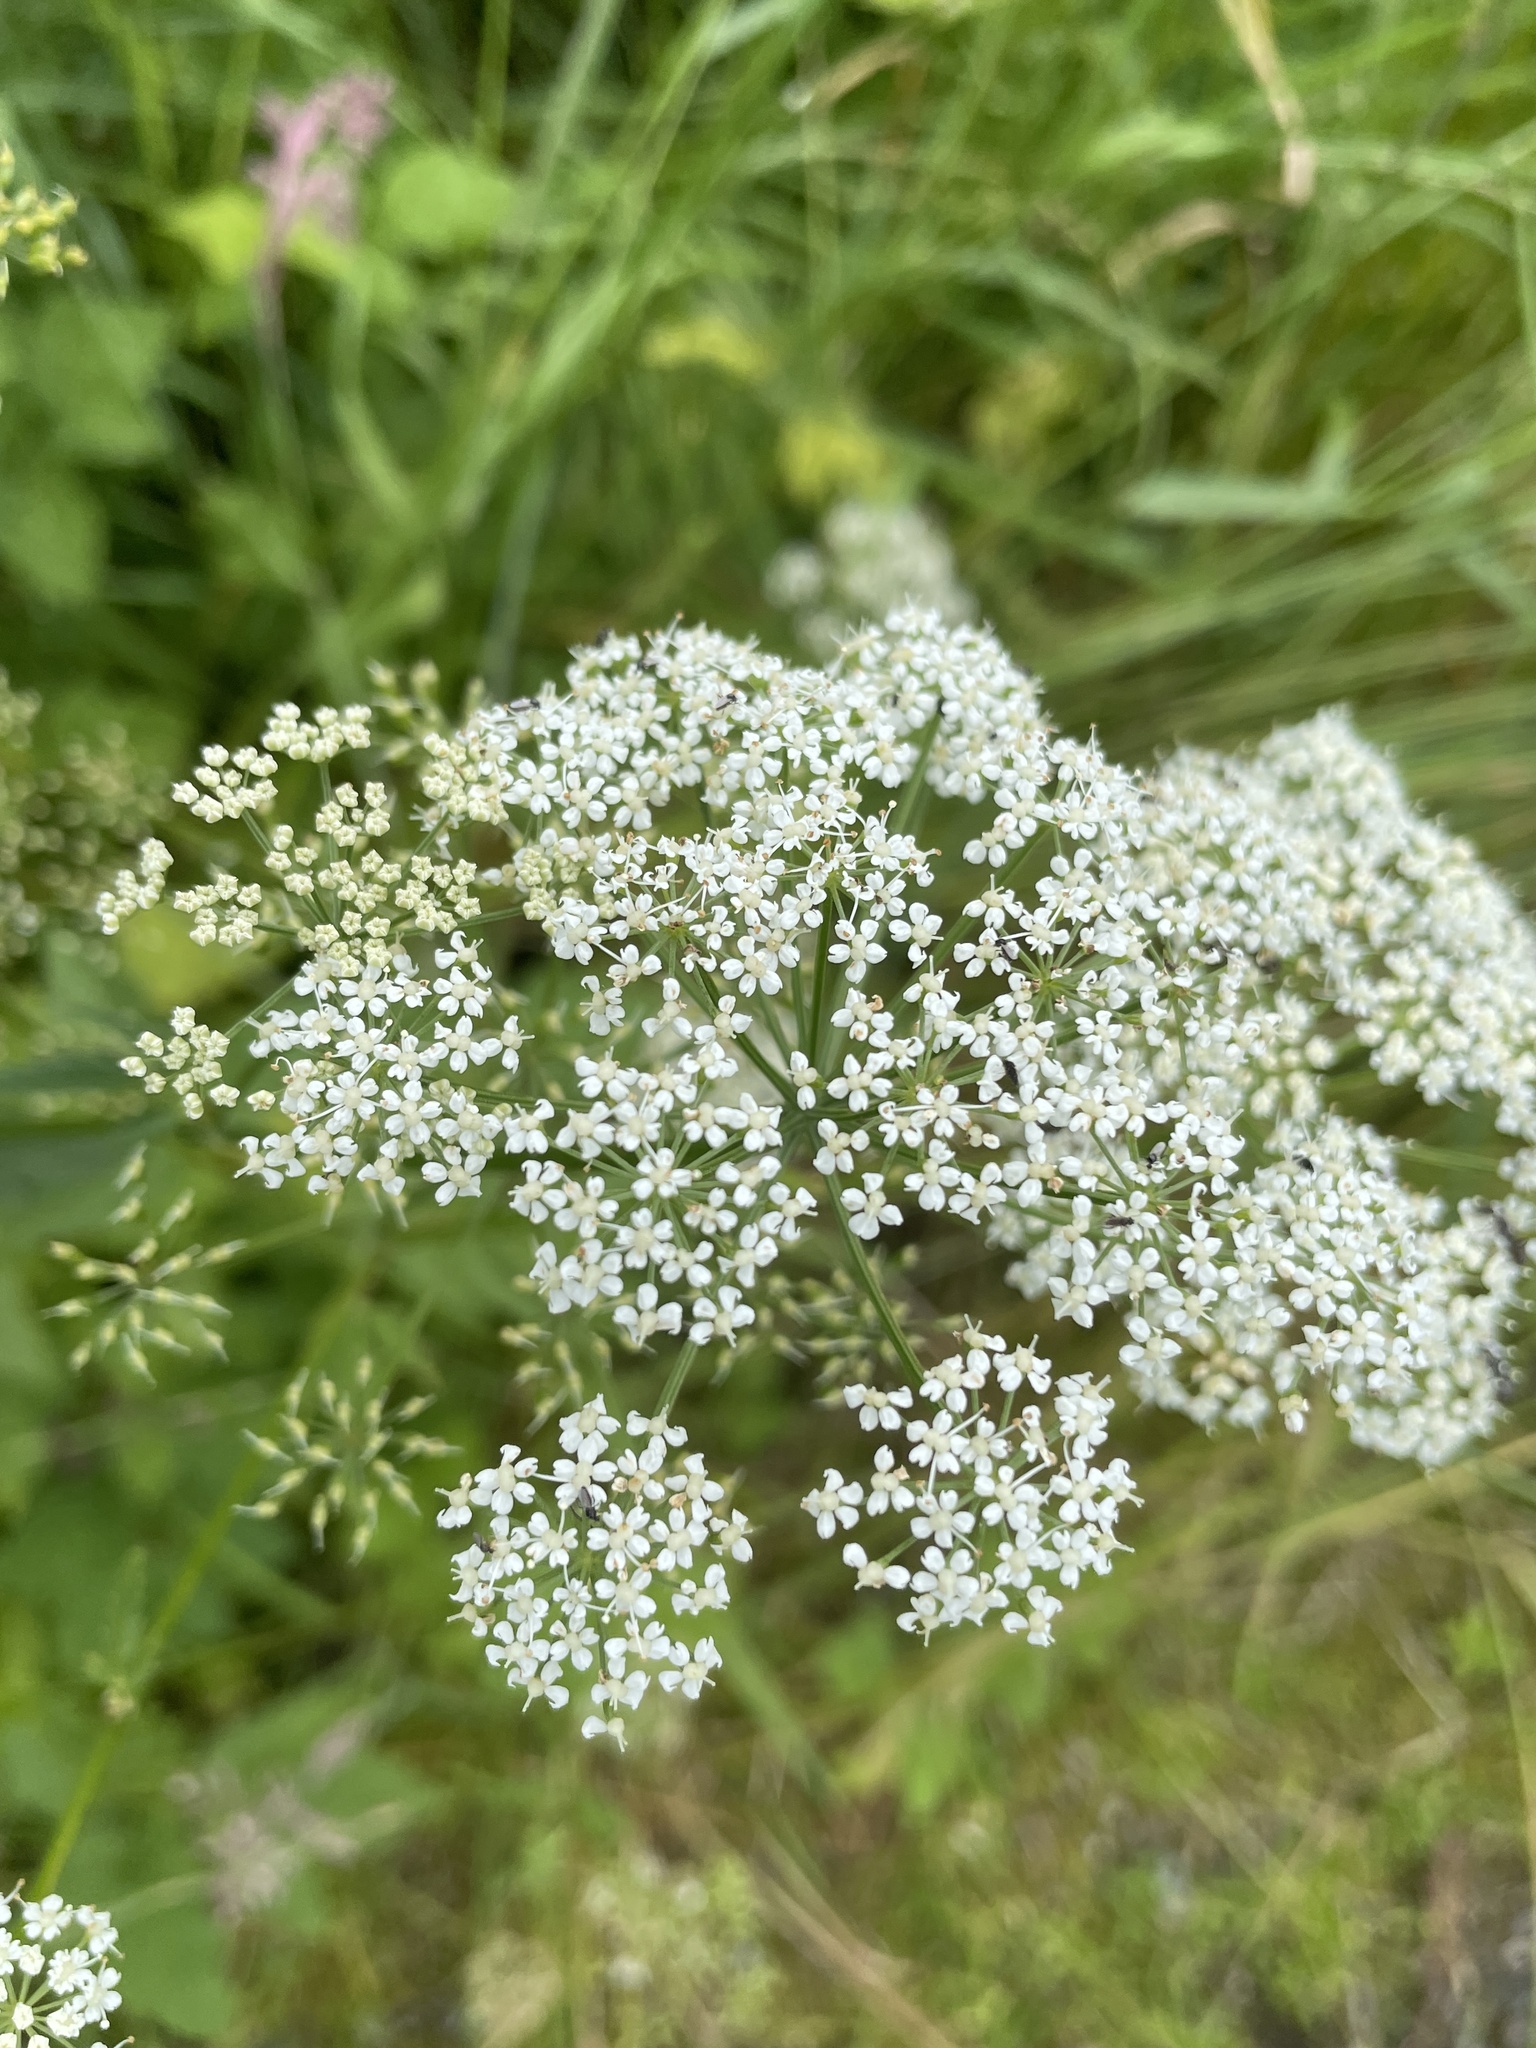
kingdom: Plantae
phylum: Tracheophyta
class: Magnoliopsida
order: Apiales
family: Apiaceae
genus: Aegopodium
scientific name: Aegopodium podagraria
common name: Ground-elder
